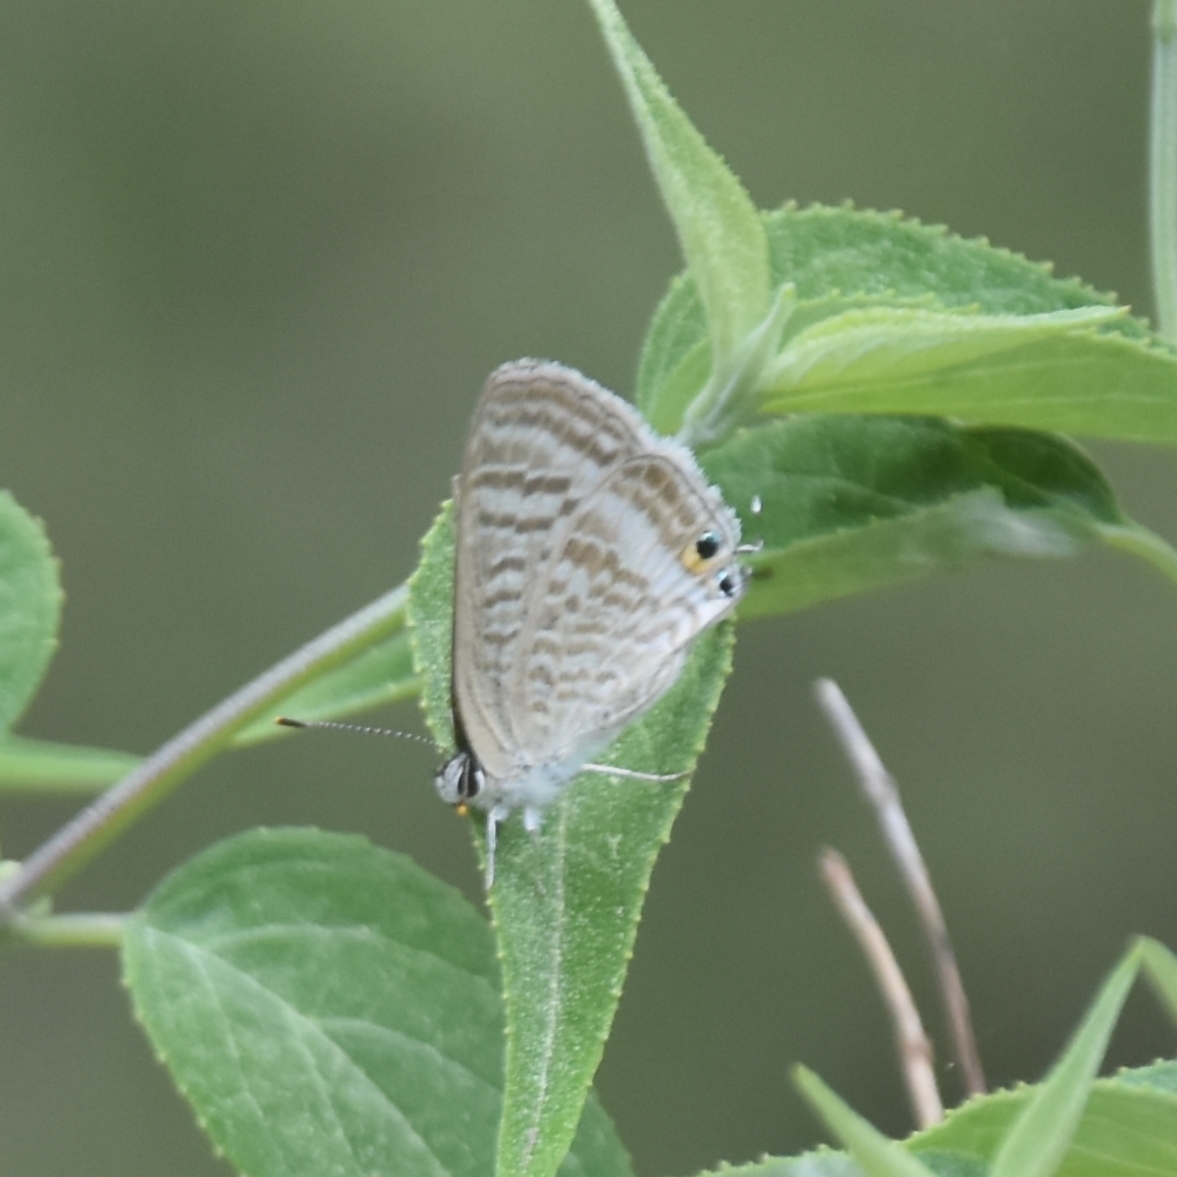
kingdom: Animalia
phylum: Arthropoda
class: Insecta
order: Lepidoptera
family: Lycaenidae
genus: Lampides
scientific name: Lampides boeticus
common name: Long-tailed blue
